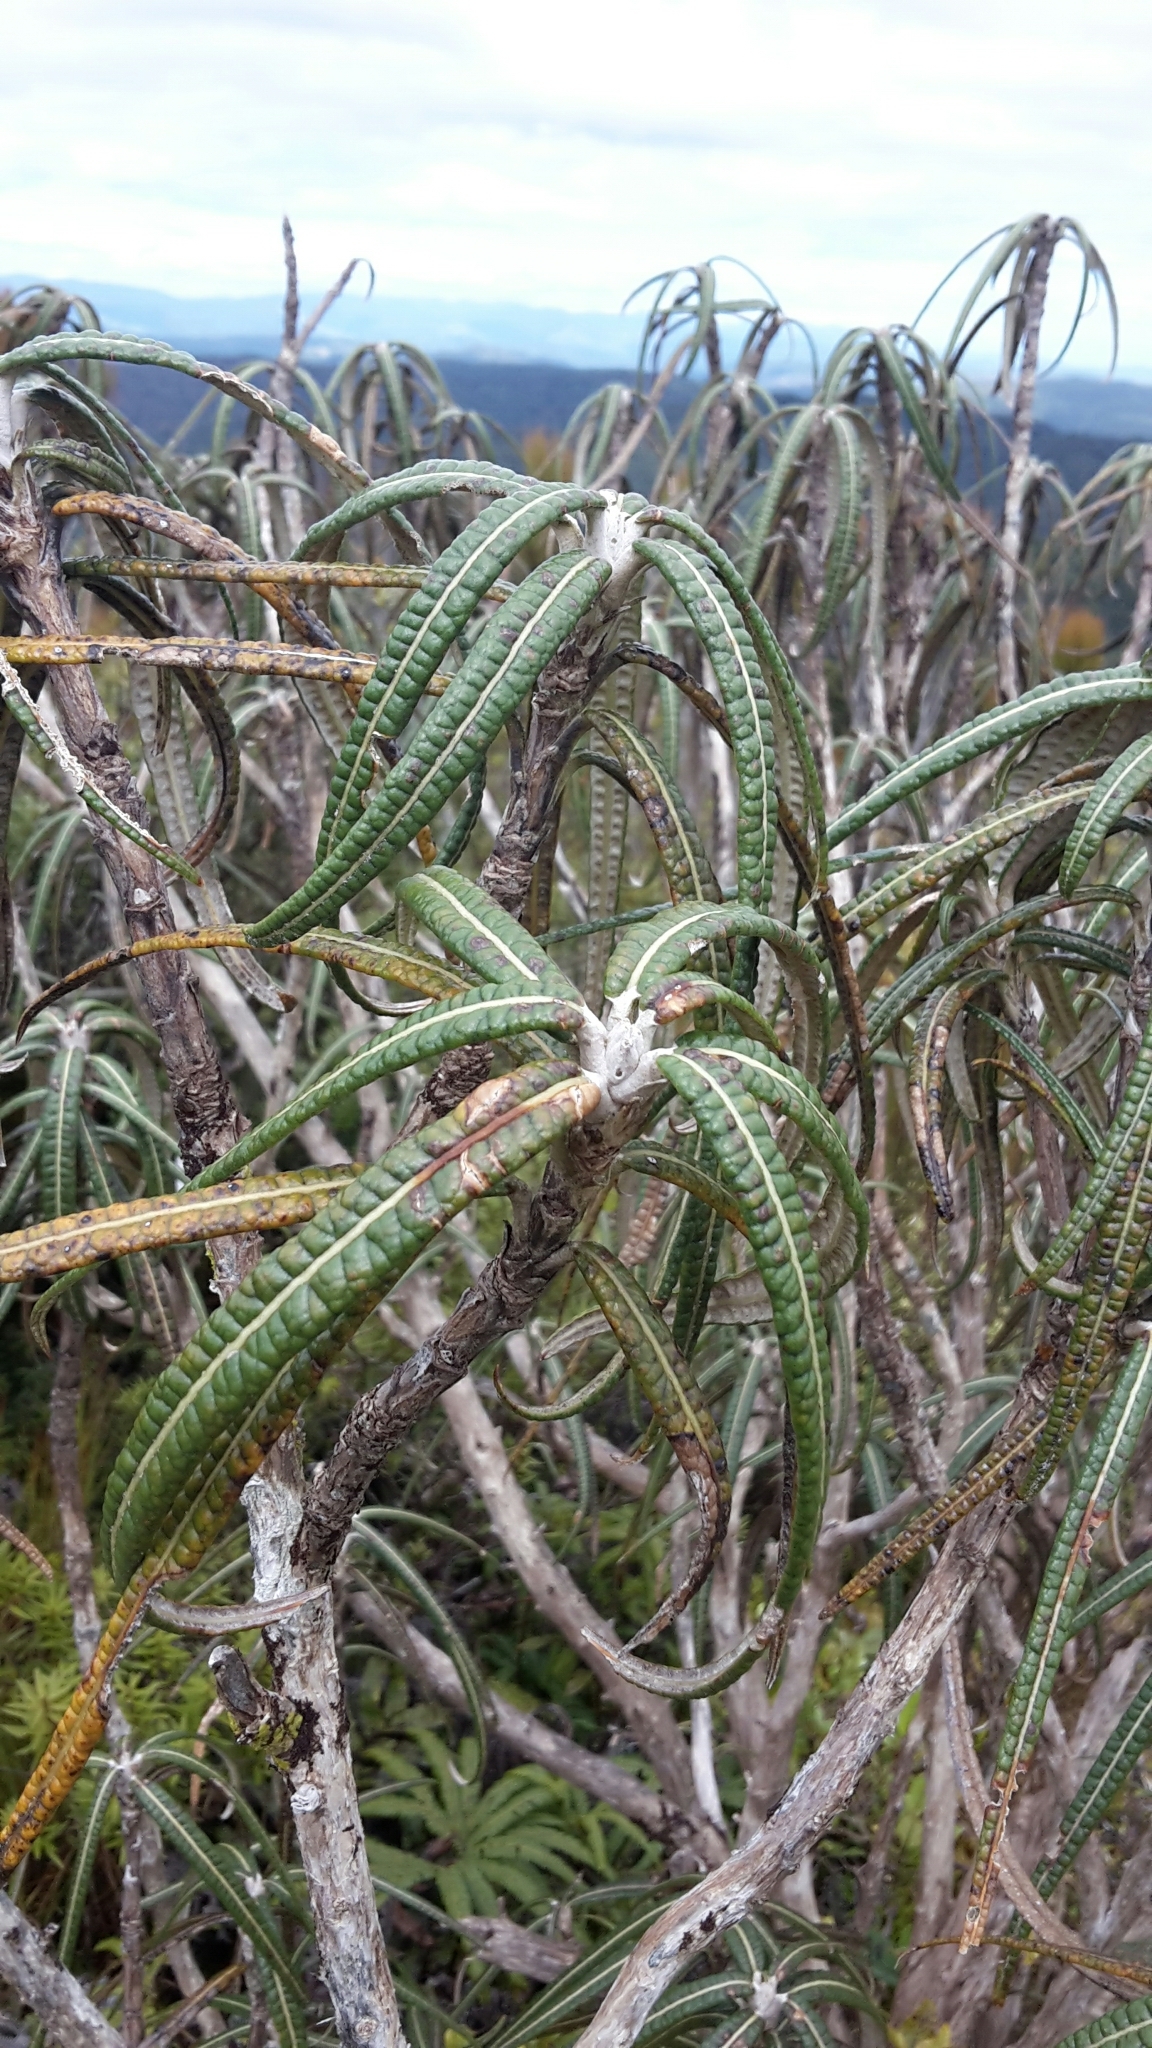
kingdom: Plantae
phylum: Tracheophyta
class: Magnoliopsida
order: Asterales
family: Asteraceae
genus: Olearia
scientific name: Olearia lacunosa
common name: Lancewood tree daisy
